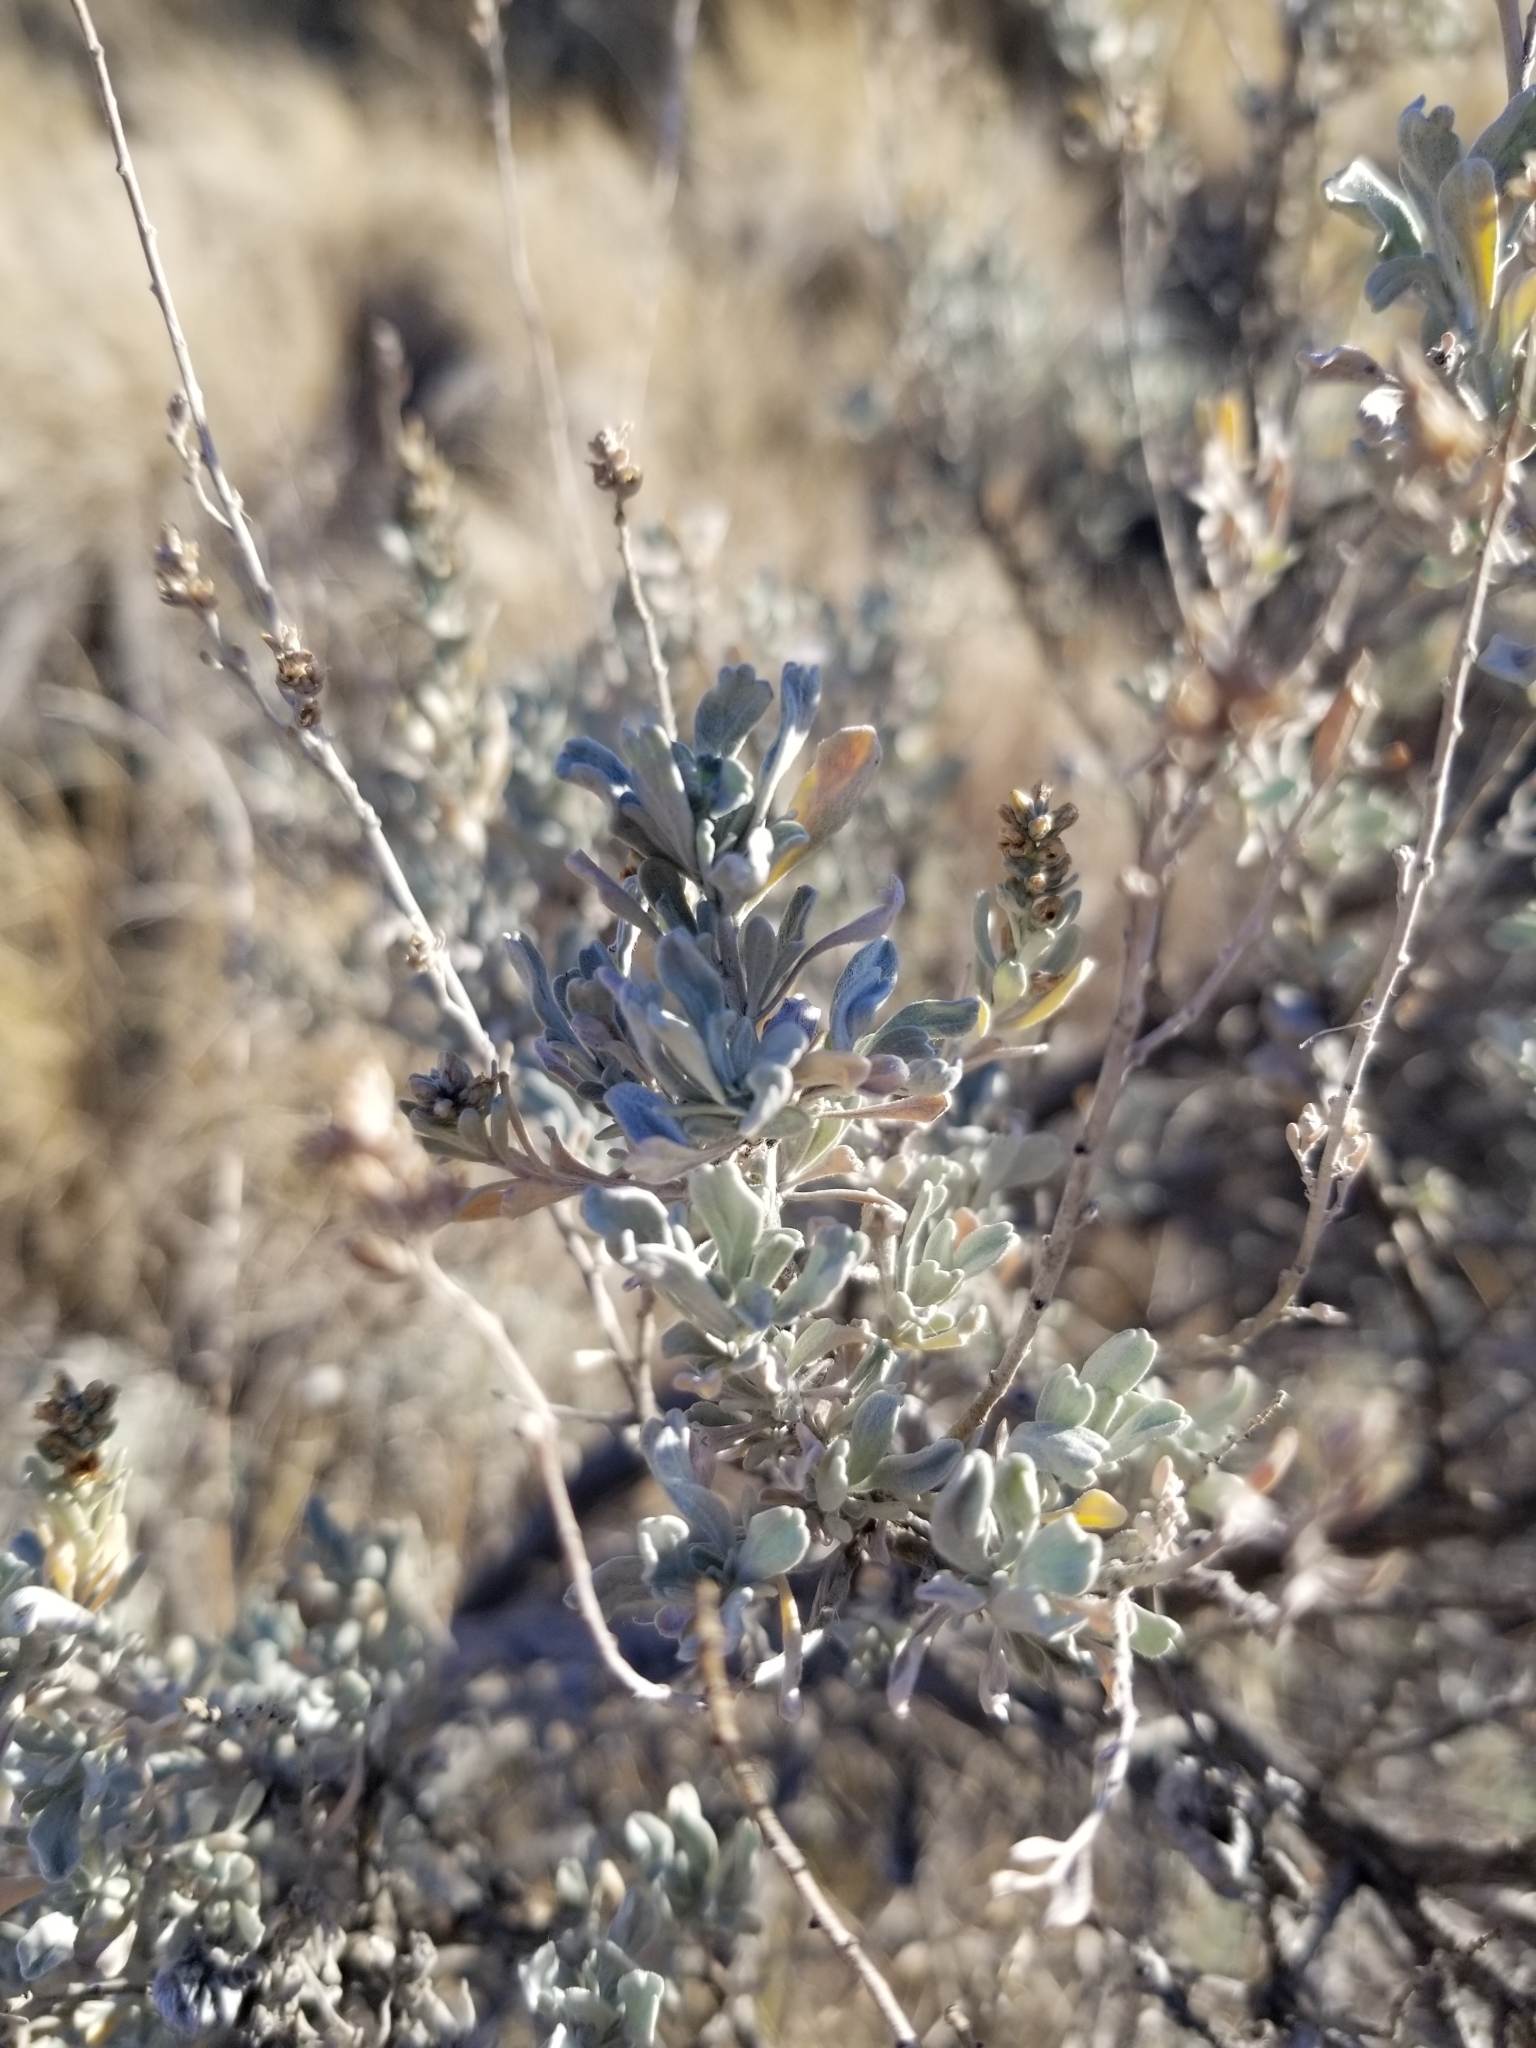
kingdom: Plantae
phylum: Tracheophyta
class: Magnoliopsida
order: Asterales
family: Asteraceae
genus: Artemisia
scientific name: Artemisia tridentata
